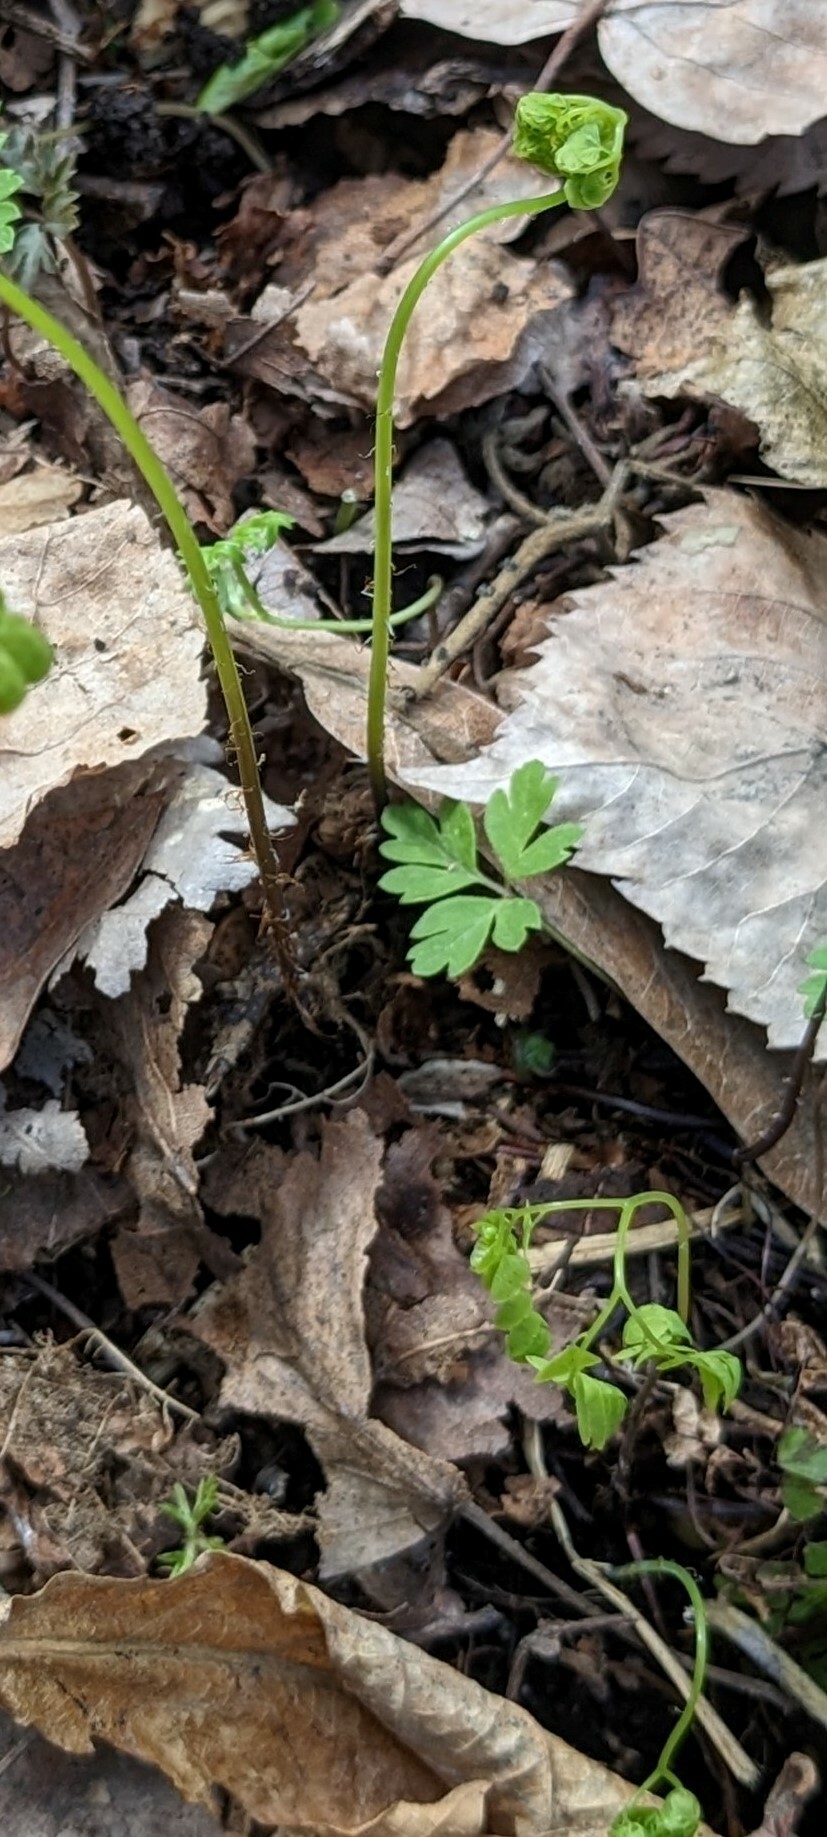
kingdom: Plantae
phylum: Tracheophyta
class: Polypodiopsida
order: Polypodiales
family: Pteridaceae
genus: Adiantum
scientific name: Adiantum pedatum
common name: Five-finger fern
